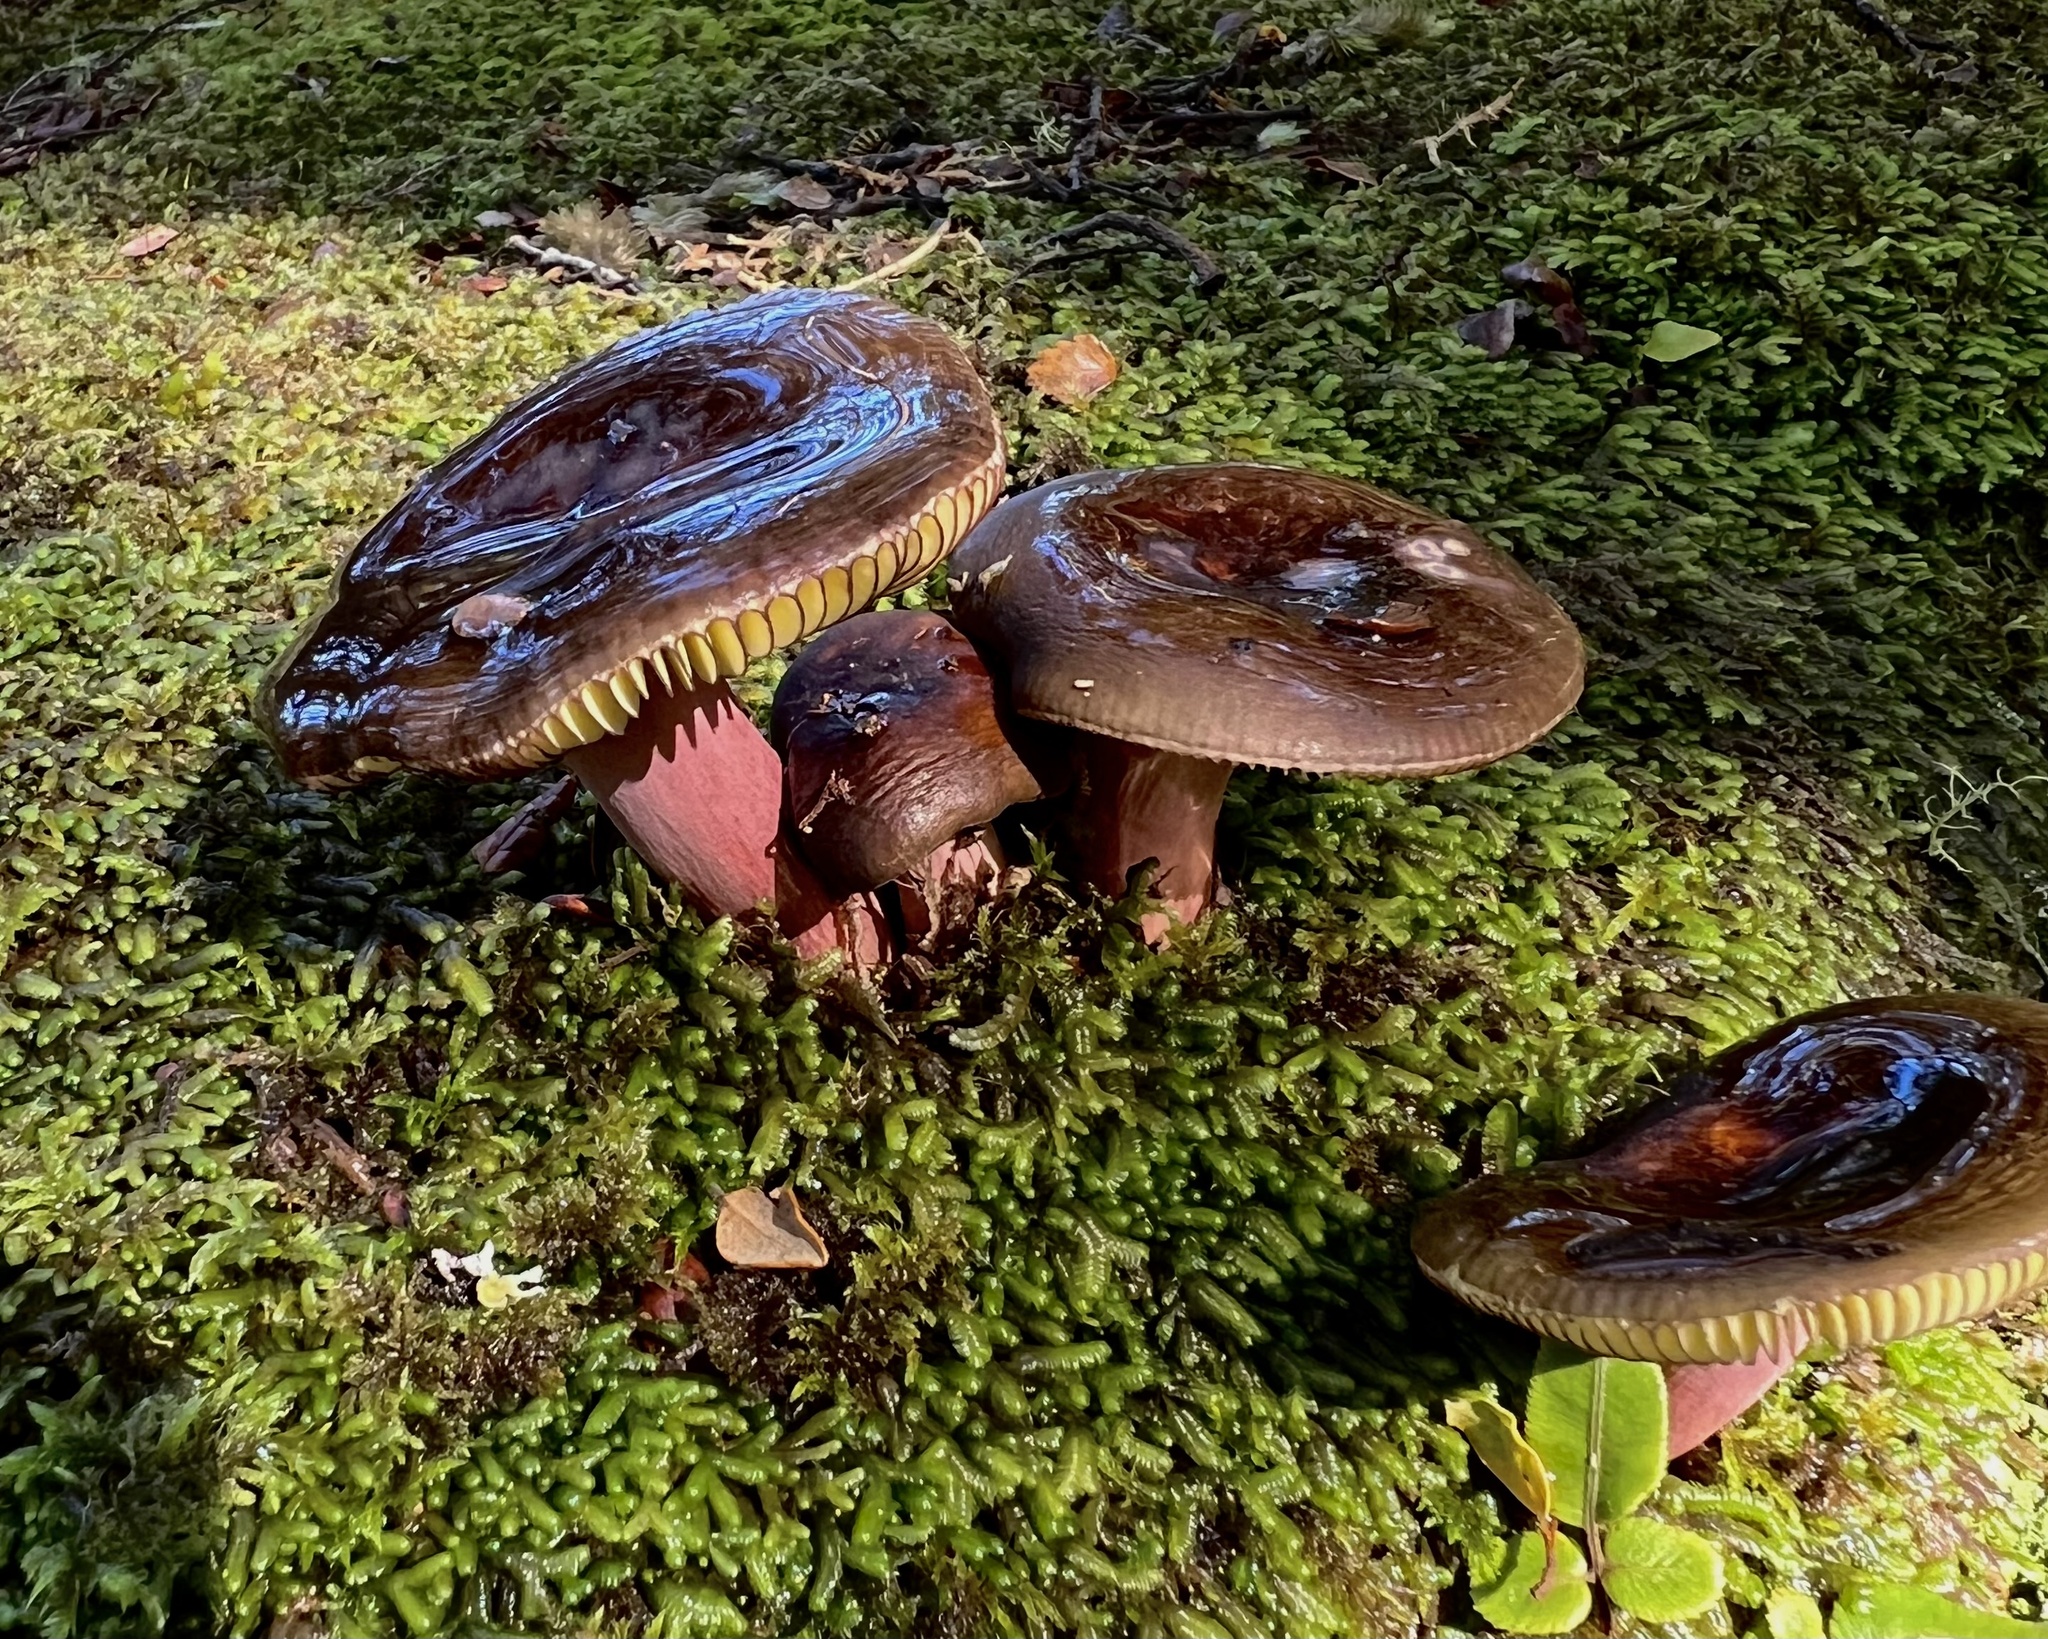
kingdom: Fungi
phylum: Basidiomycota
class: Agaricomycetes
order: Russulales
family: Russulaceae
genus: Russula
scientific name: Russula tricholomopsis
